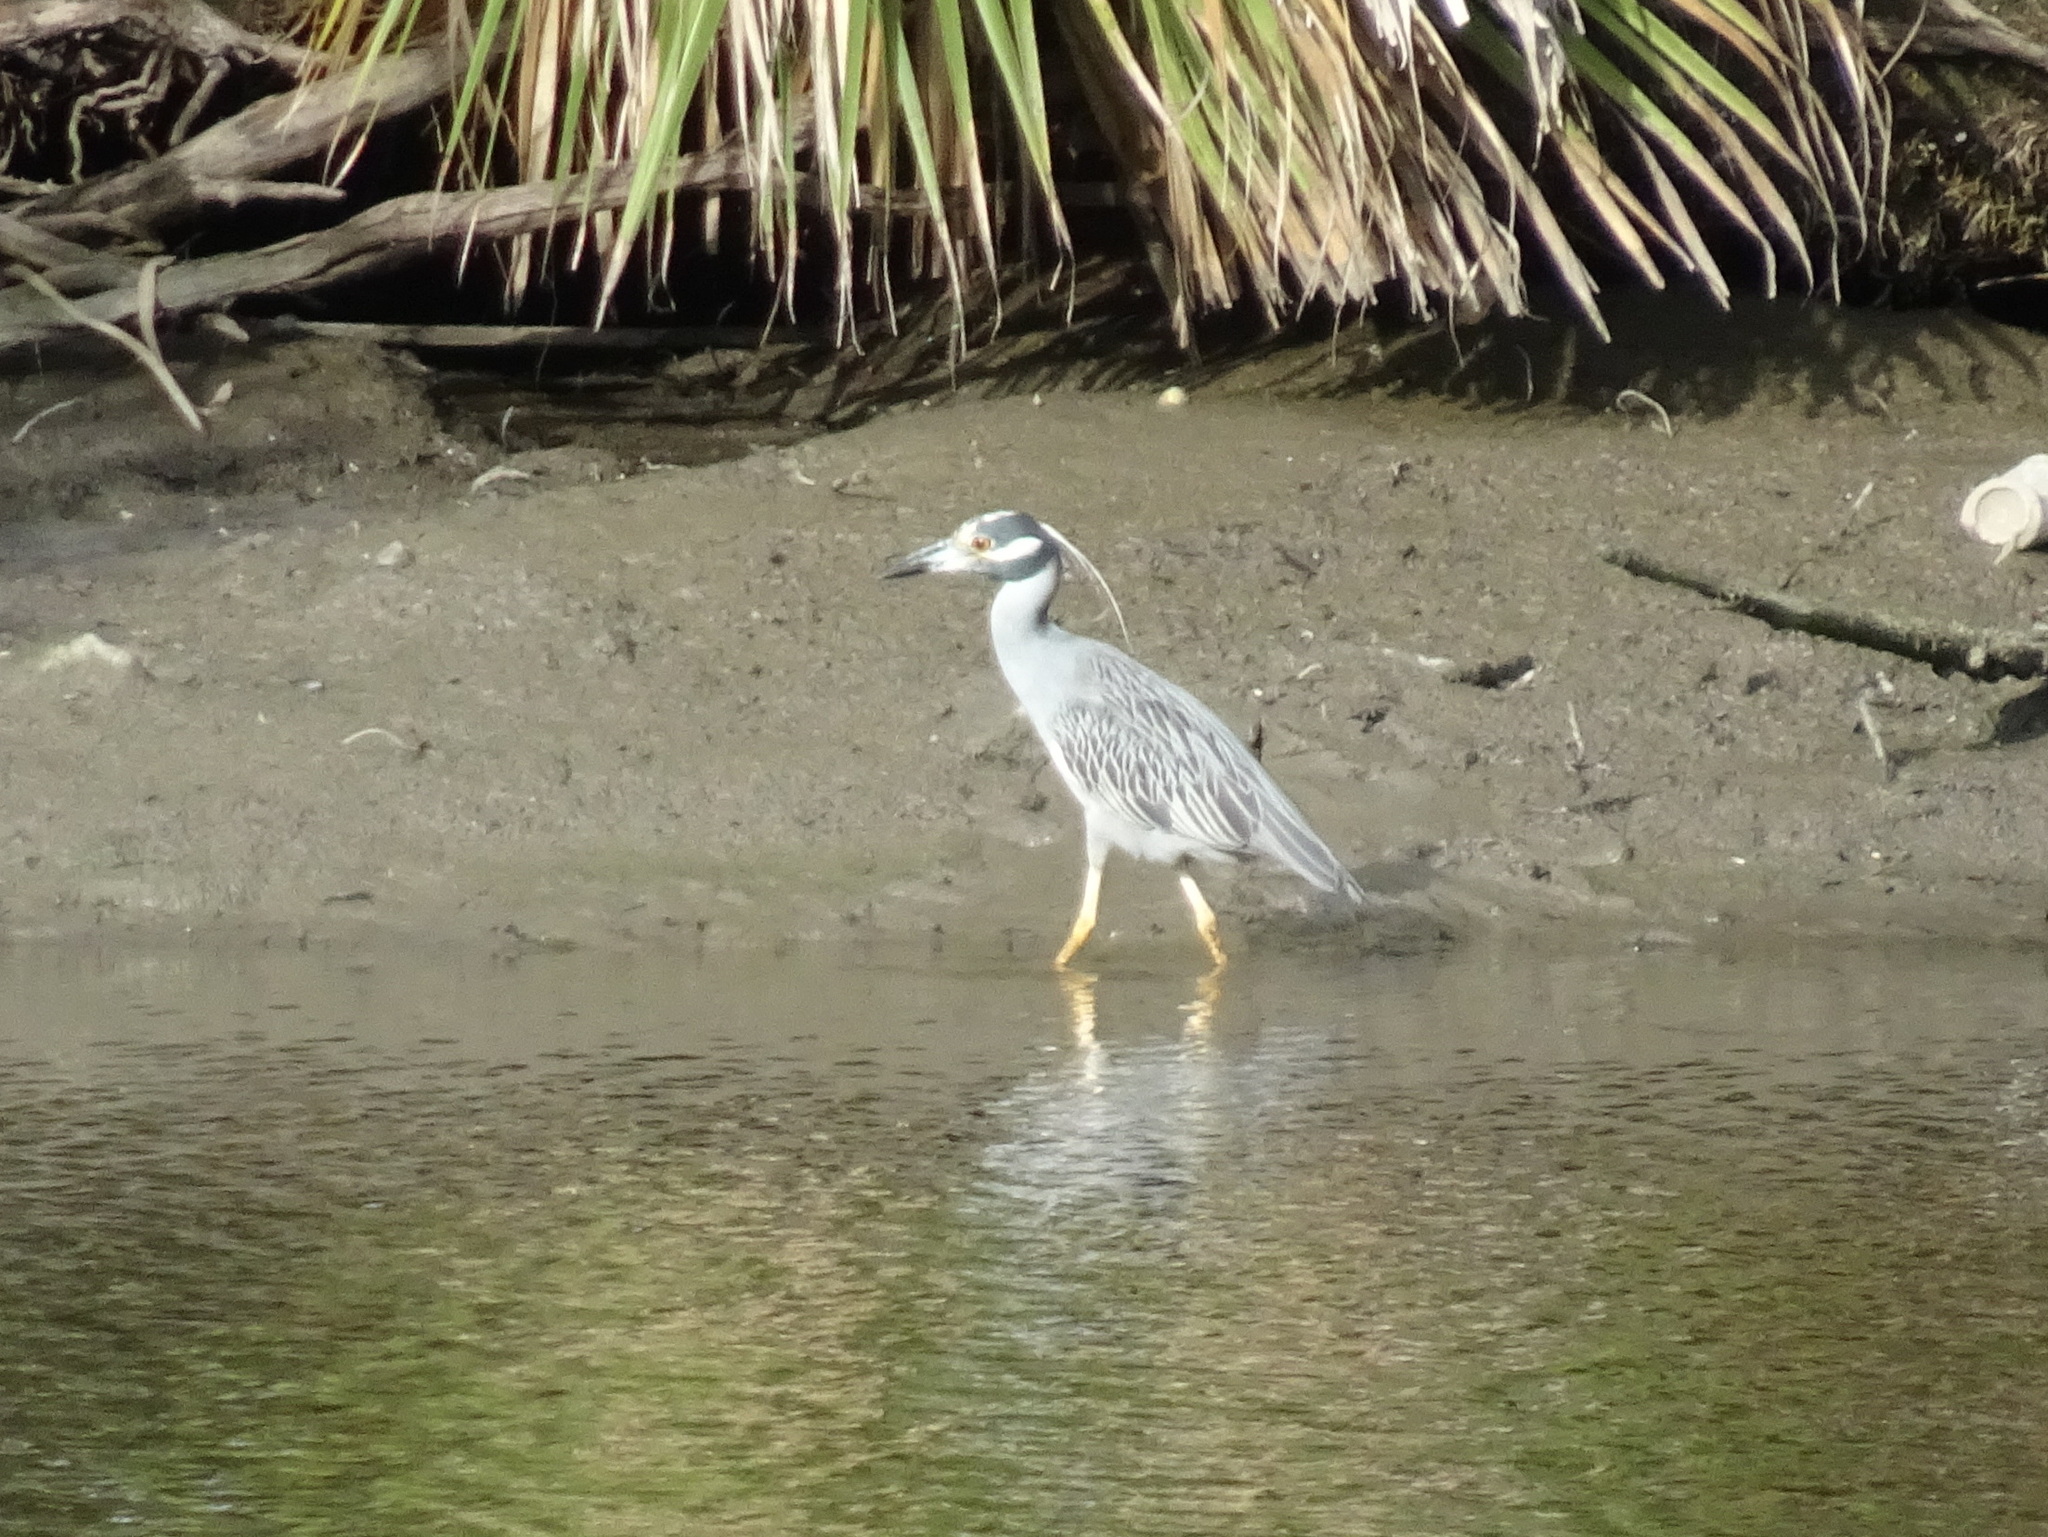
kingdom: Animalia
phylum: Chordata
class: Aves
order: Pelecaniformes
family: Ardeidae
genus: Nyctanassa
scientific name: Nyctanassa violacea
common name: Yellow-crowned night heron
